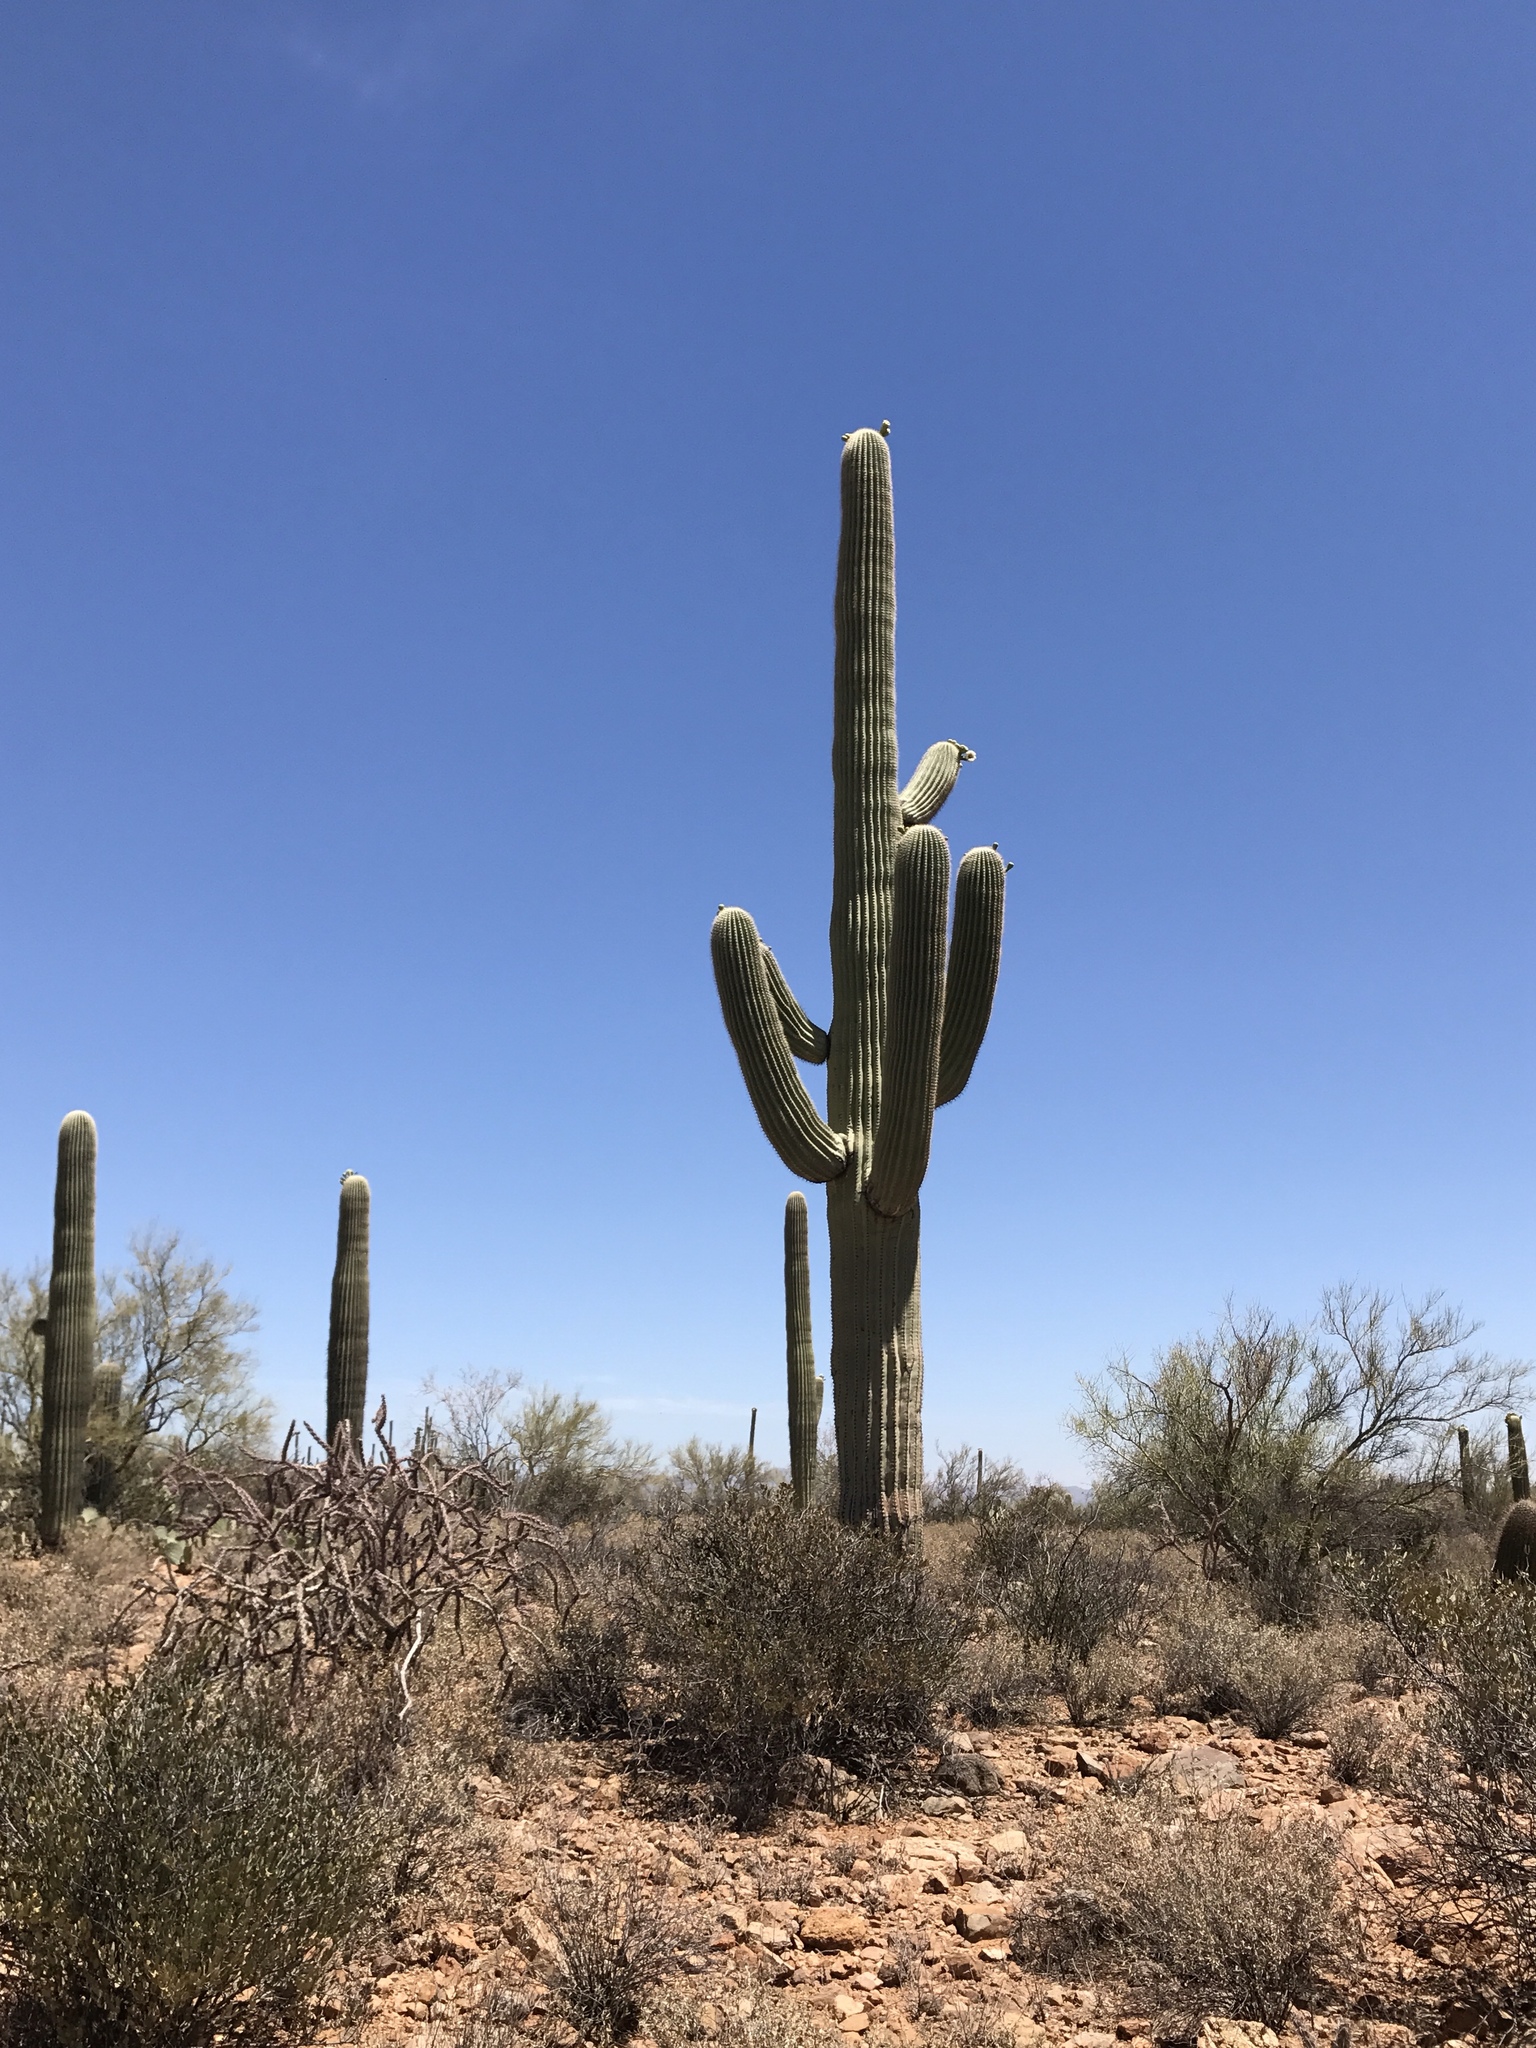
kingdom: Plantae
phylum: Tracheophyta
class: Magnoliopsida
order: Caryophyllales
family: Cactaceae
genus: Carnegiea
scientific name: Carnegiea gigantea
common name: Saguaro
